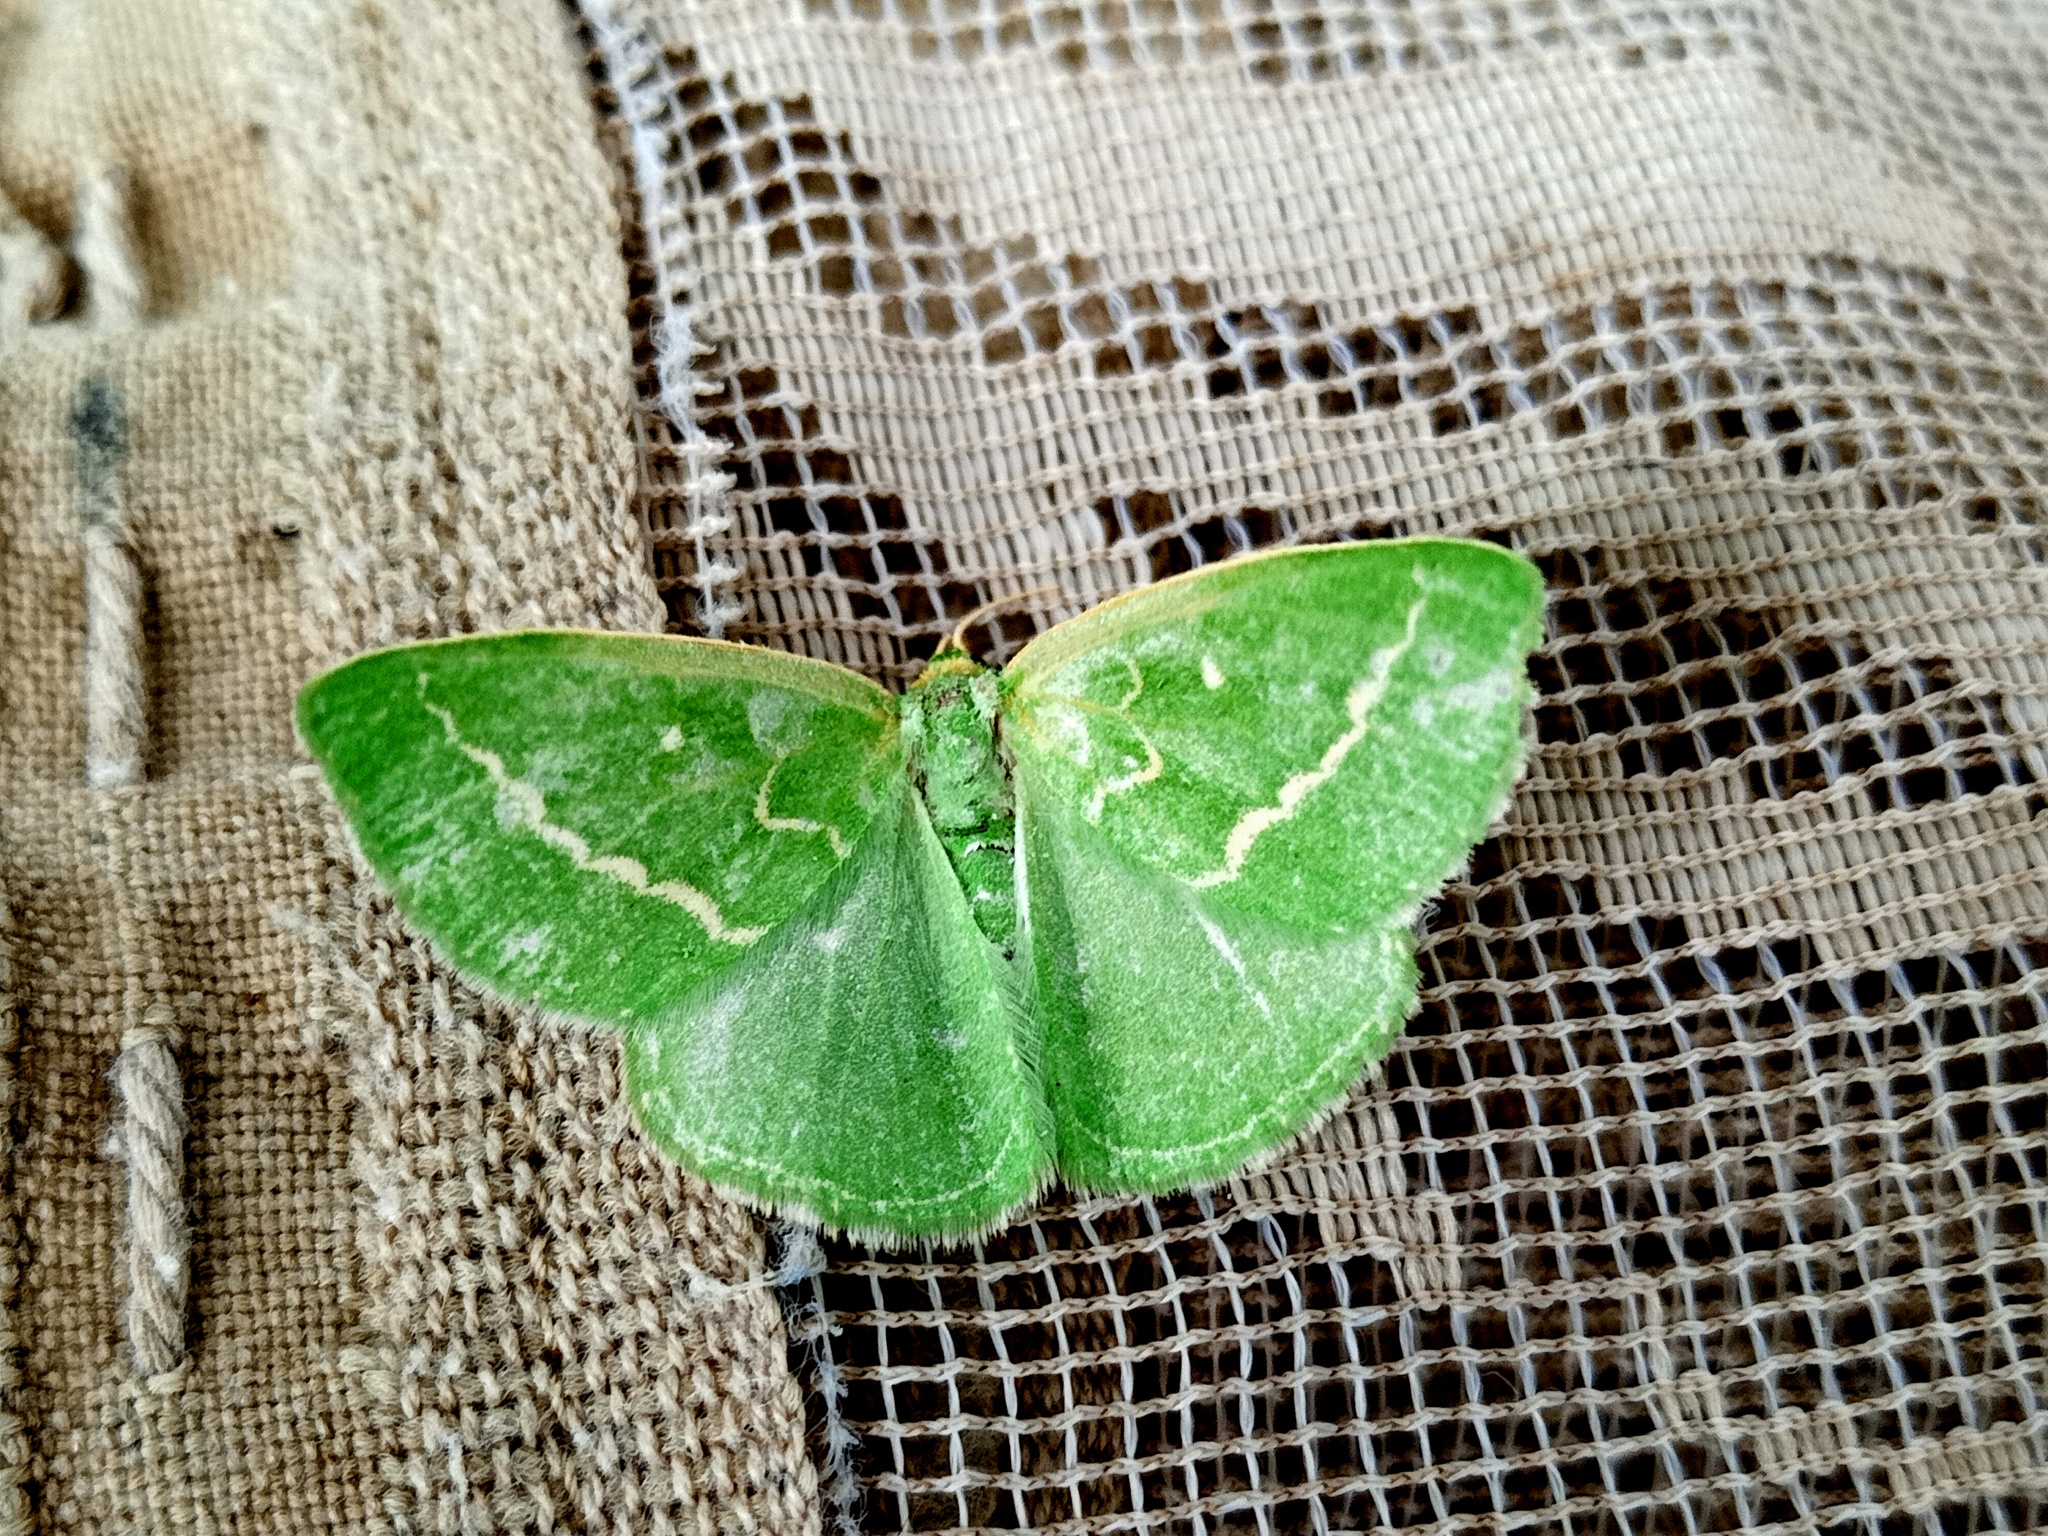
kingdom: Animalia
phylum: Arthropoda
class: Insecta
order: Lepidoptera
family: Geometridae
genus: Thetidia
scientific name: Thetidia smaragdaria
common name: Essex emerald
